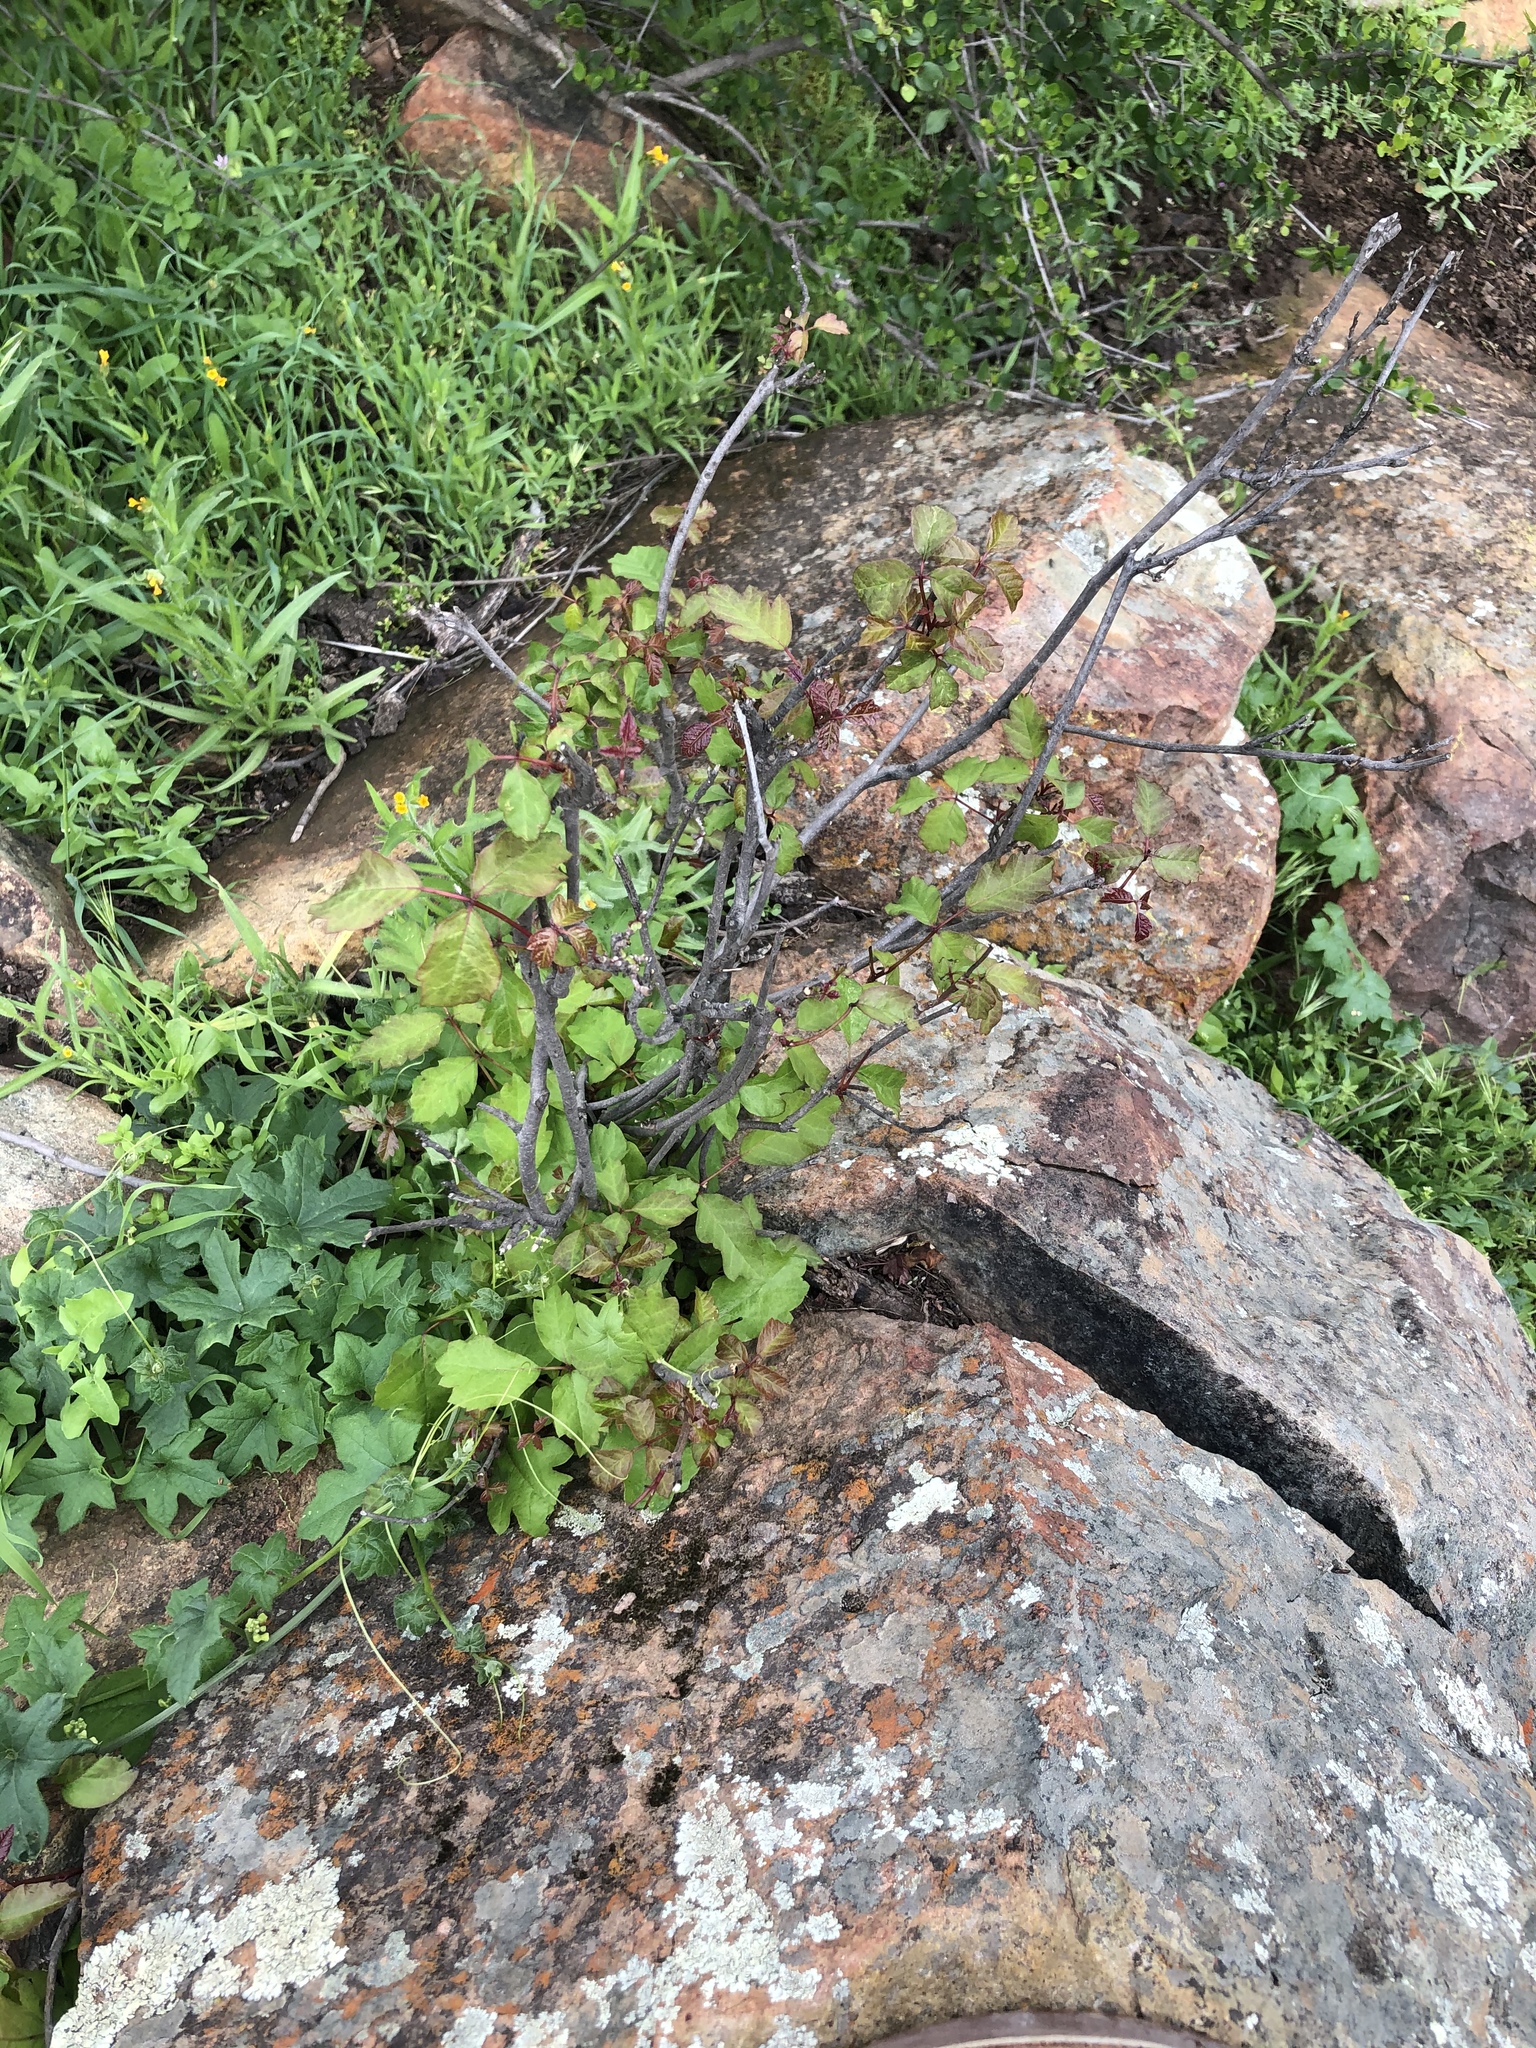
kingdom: Plantae
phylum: Tracheophyta
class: Magnoliopsida
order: Sapindales
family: Anacardiaceae
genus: Toxicodendron
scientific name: Toxicodendron diversilobum
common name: Pacific poison-oak
